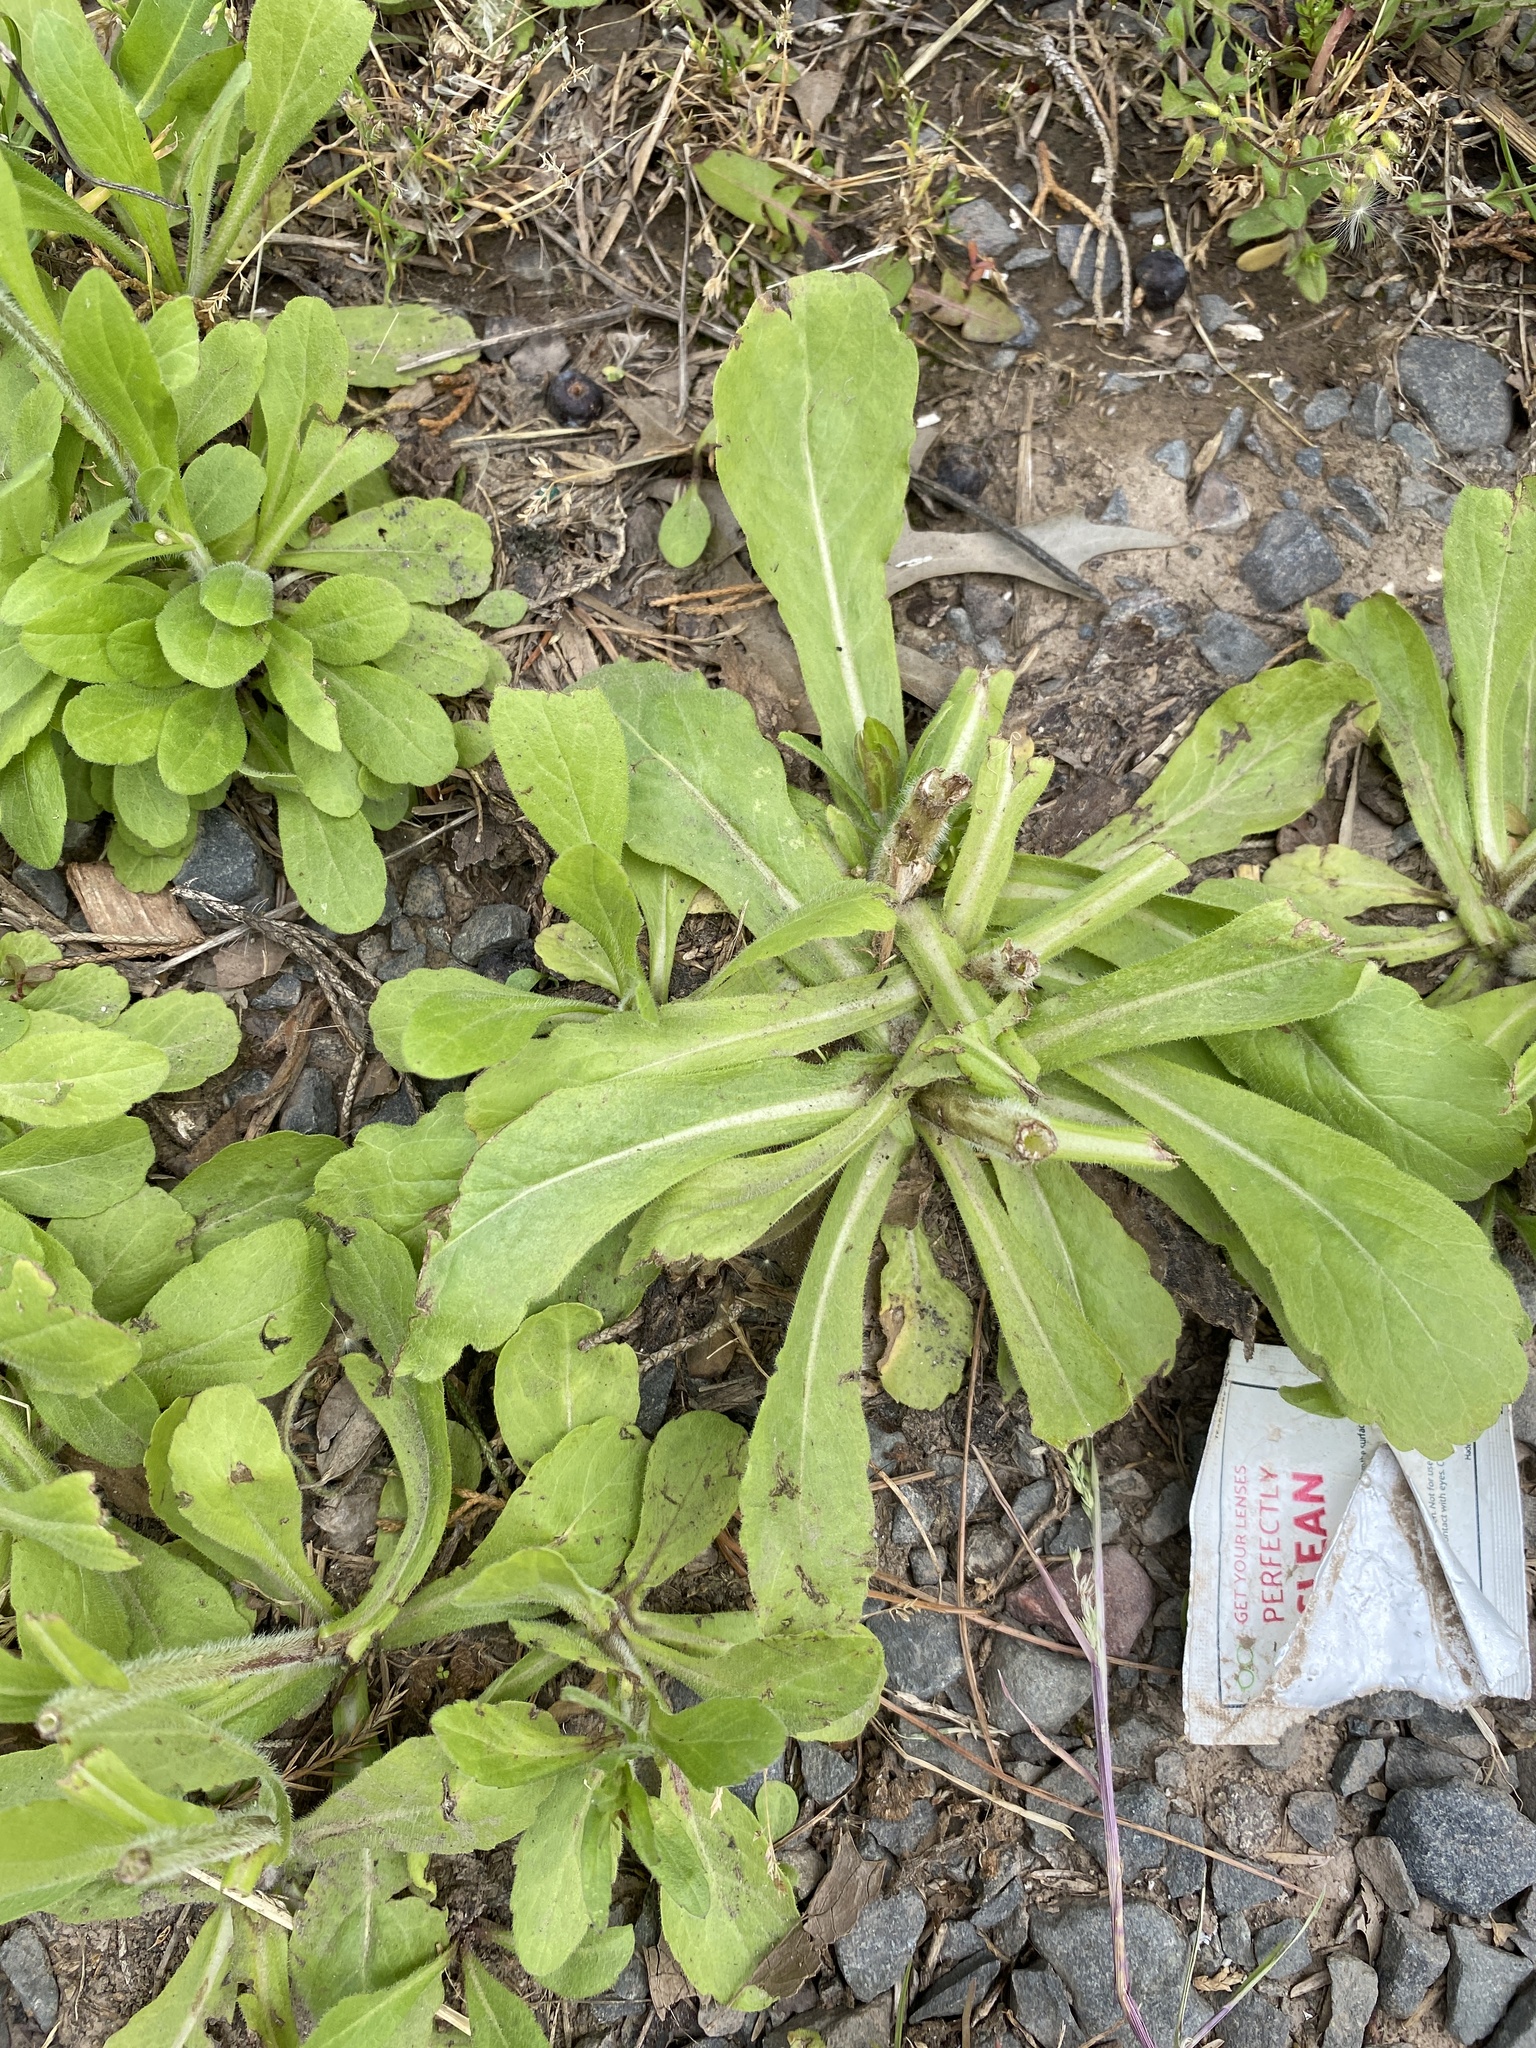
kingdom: Plantae
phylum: Tracheophyta
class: Magnoliopsida
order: Asterales
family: Asteraceae
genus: Erigeron
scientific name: Erigeron philadelphicus
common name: Robin's-plantain
